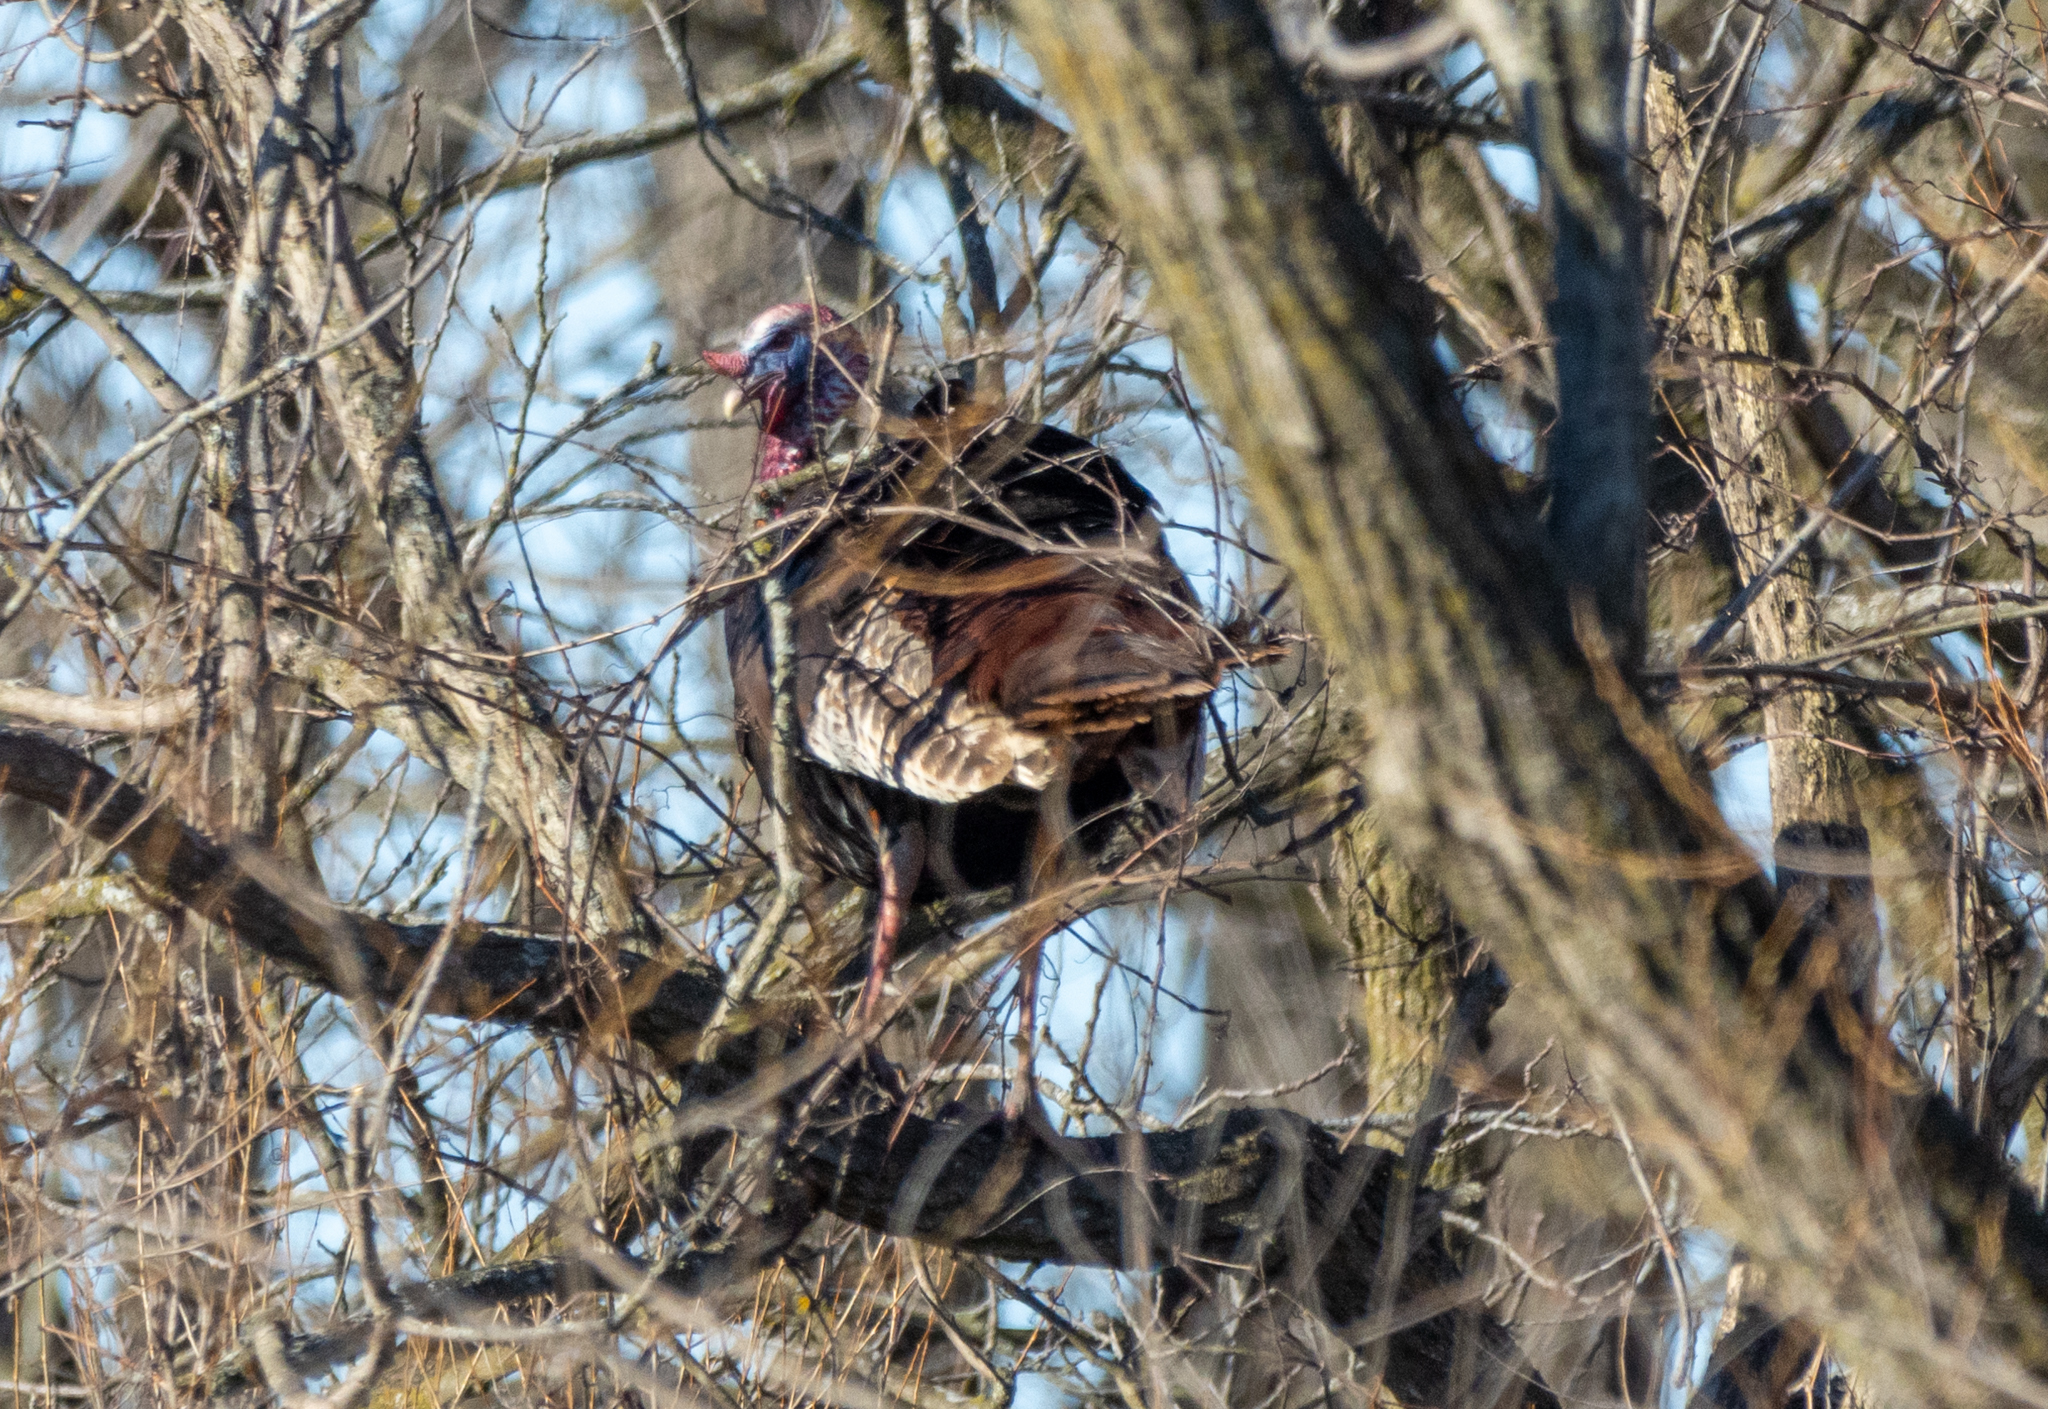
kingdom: Animalia
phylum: Chordata
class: Aves
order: Galliformes
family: Phasianidae
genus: Meleagris
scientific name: Meleagris gallopavo
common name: Wild turkey
